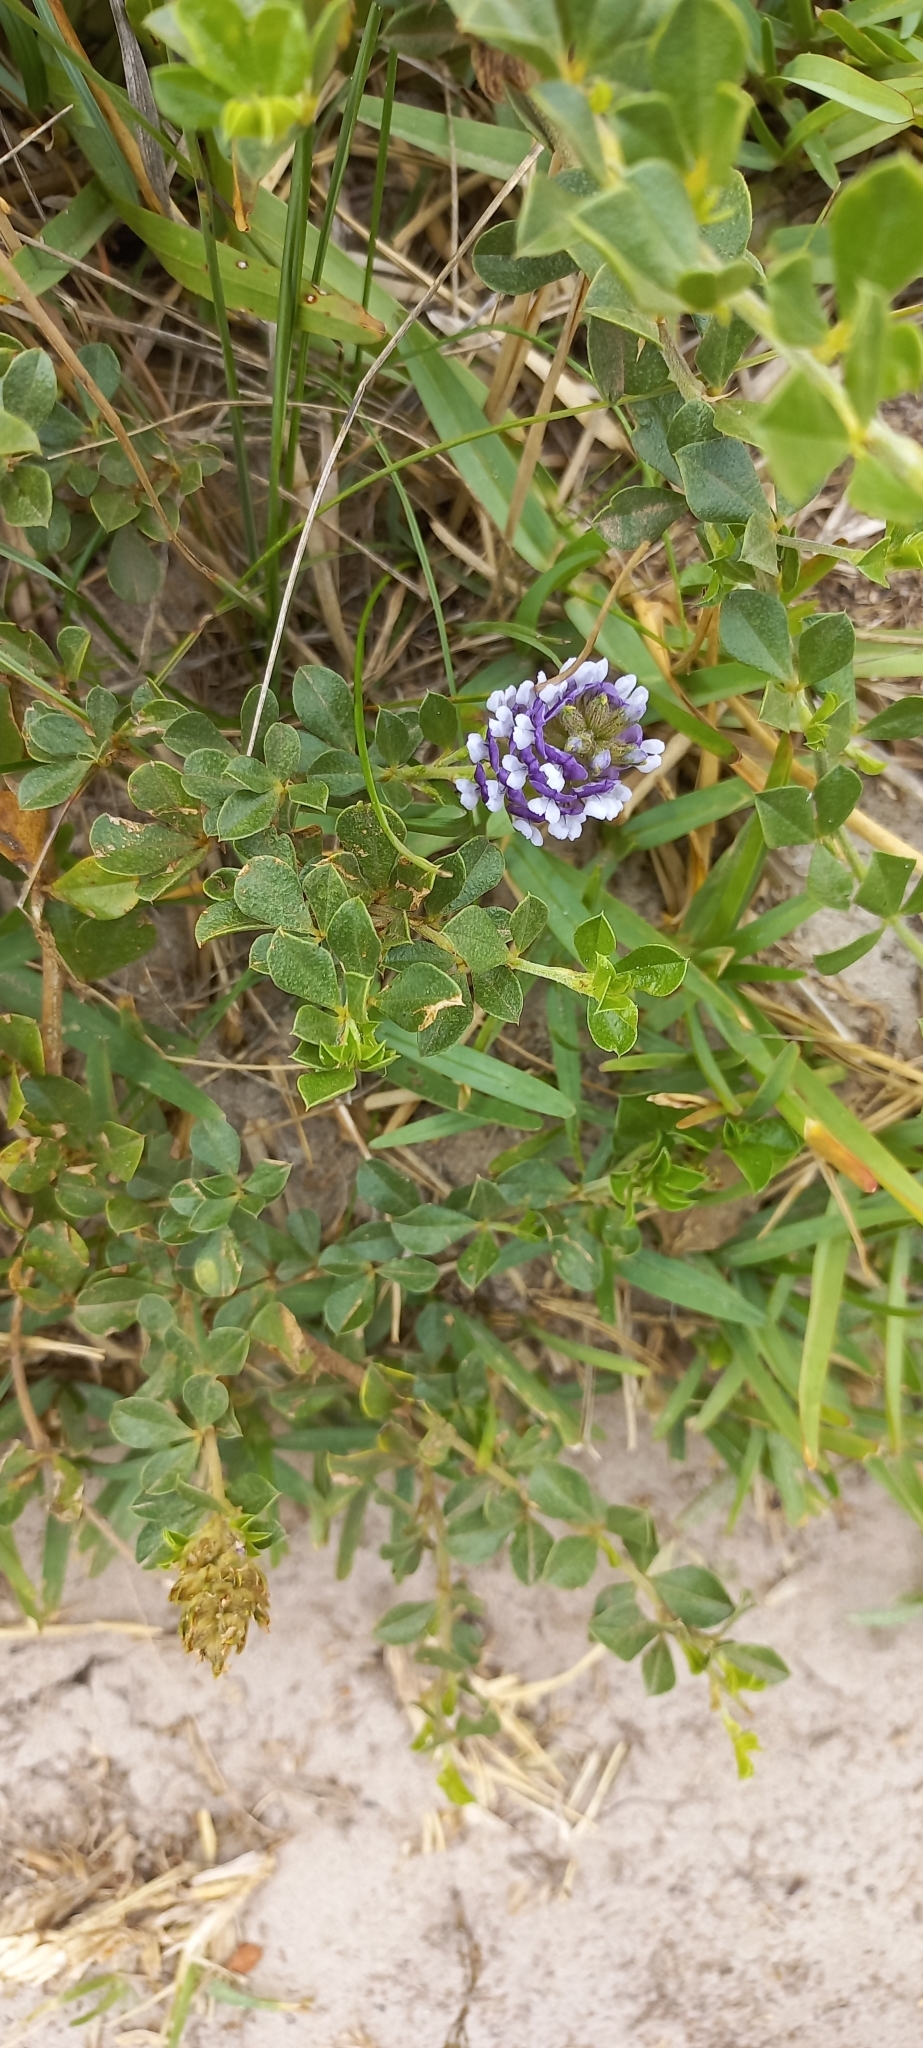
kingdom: Plantae
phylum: Tracheophyta
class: Magnoliopsida
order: Fabales
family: Fabaceae
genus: Psoralea
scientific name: Psoralea bracteolata
